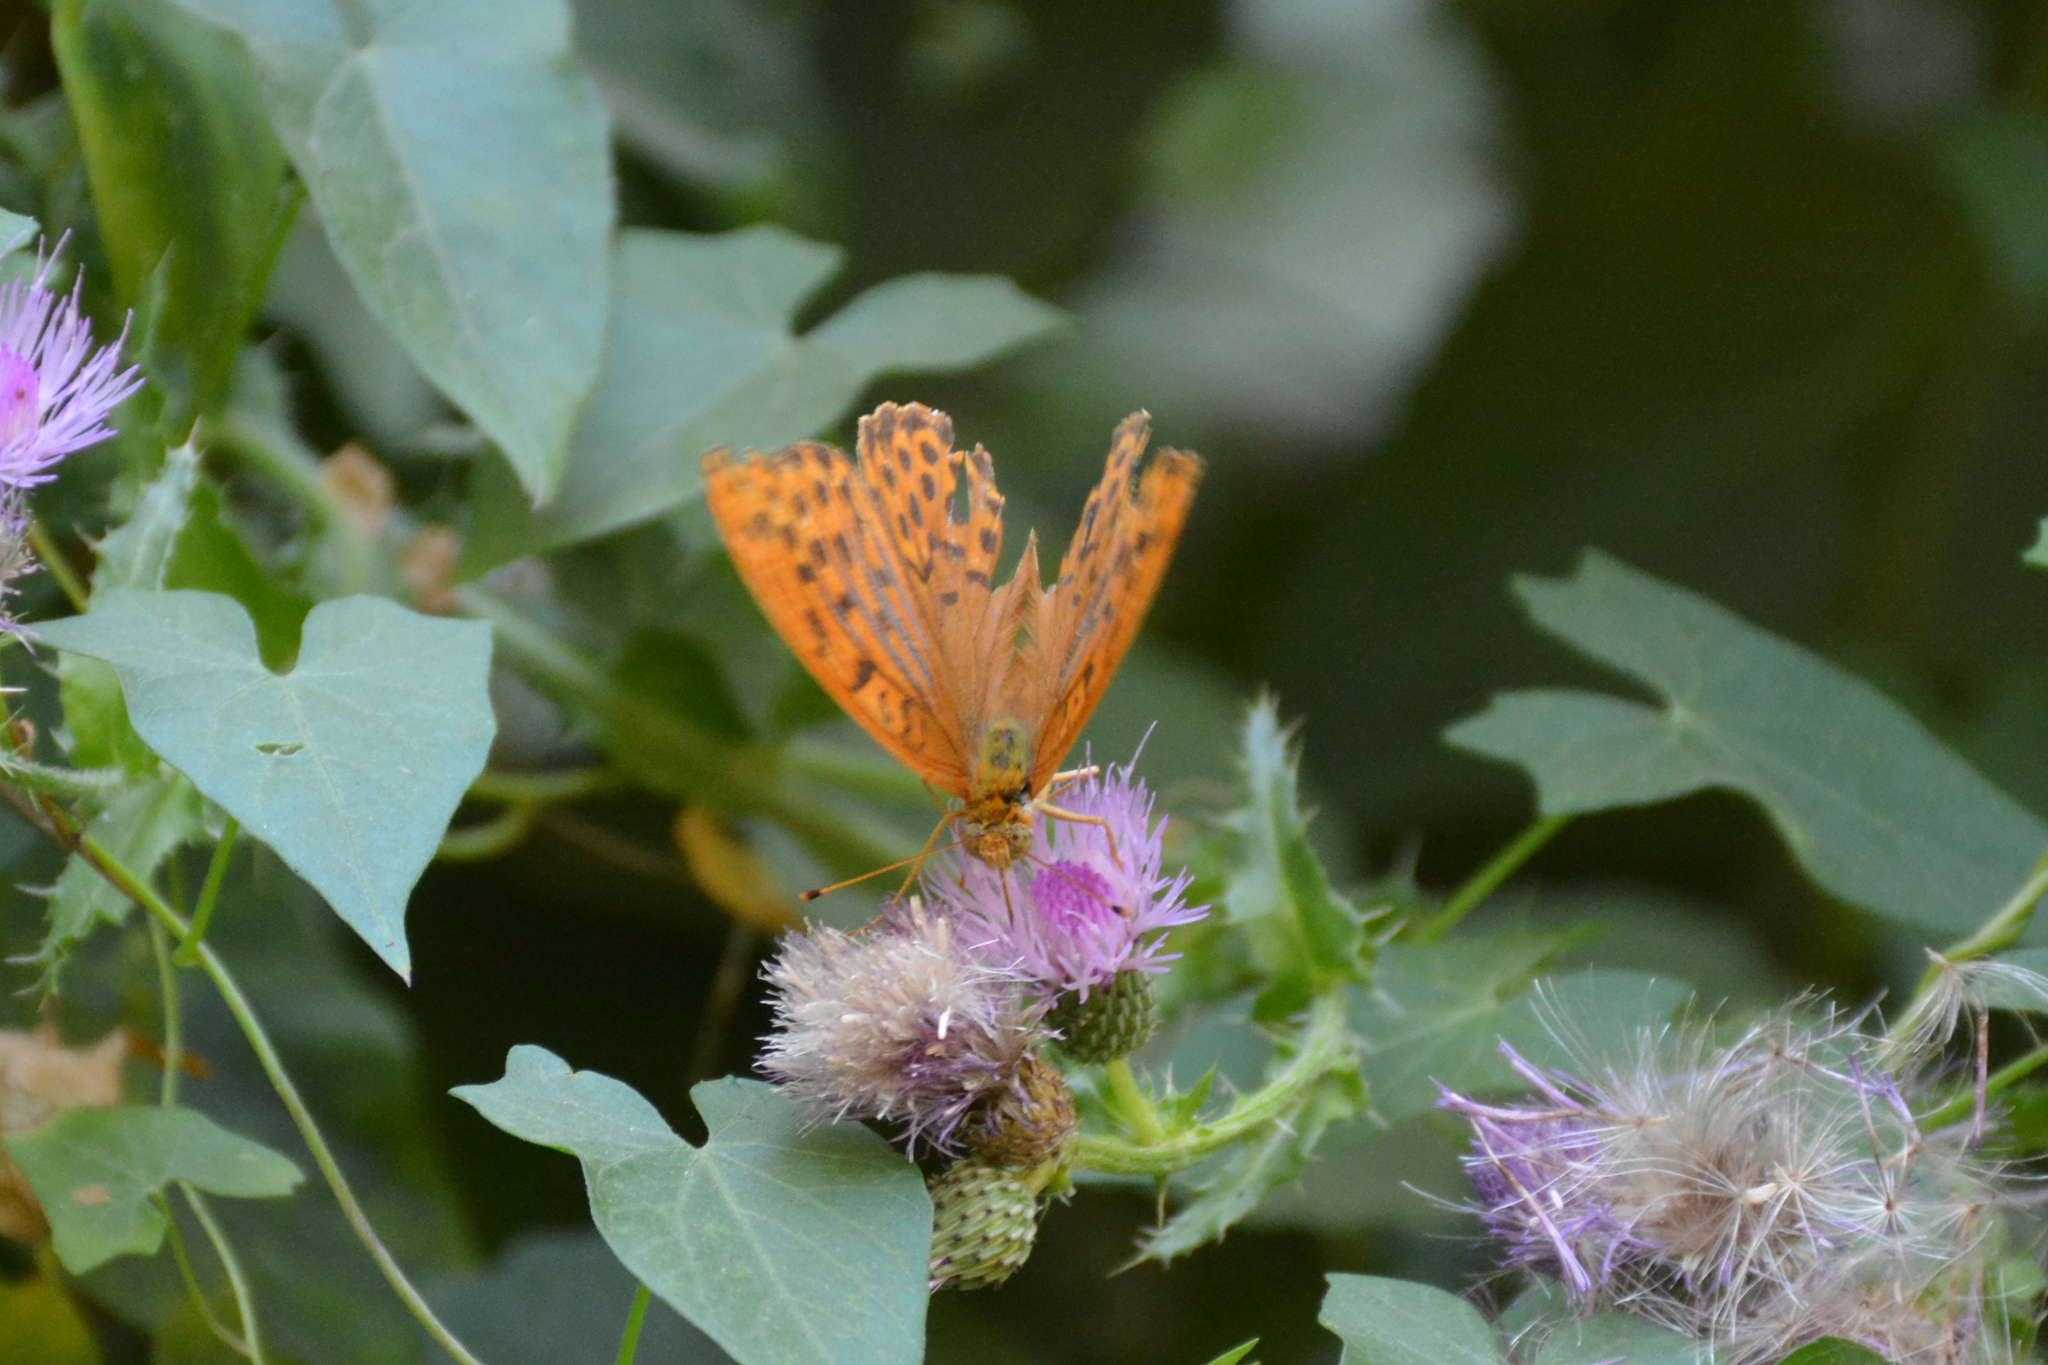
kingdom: Animalia
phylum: Arthropoda
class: Insecta
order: Lepidoptera
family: Nymphalidae
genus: Argynnis
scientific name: Argynnis paphia
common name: Silver-washed fritillary
